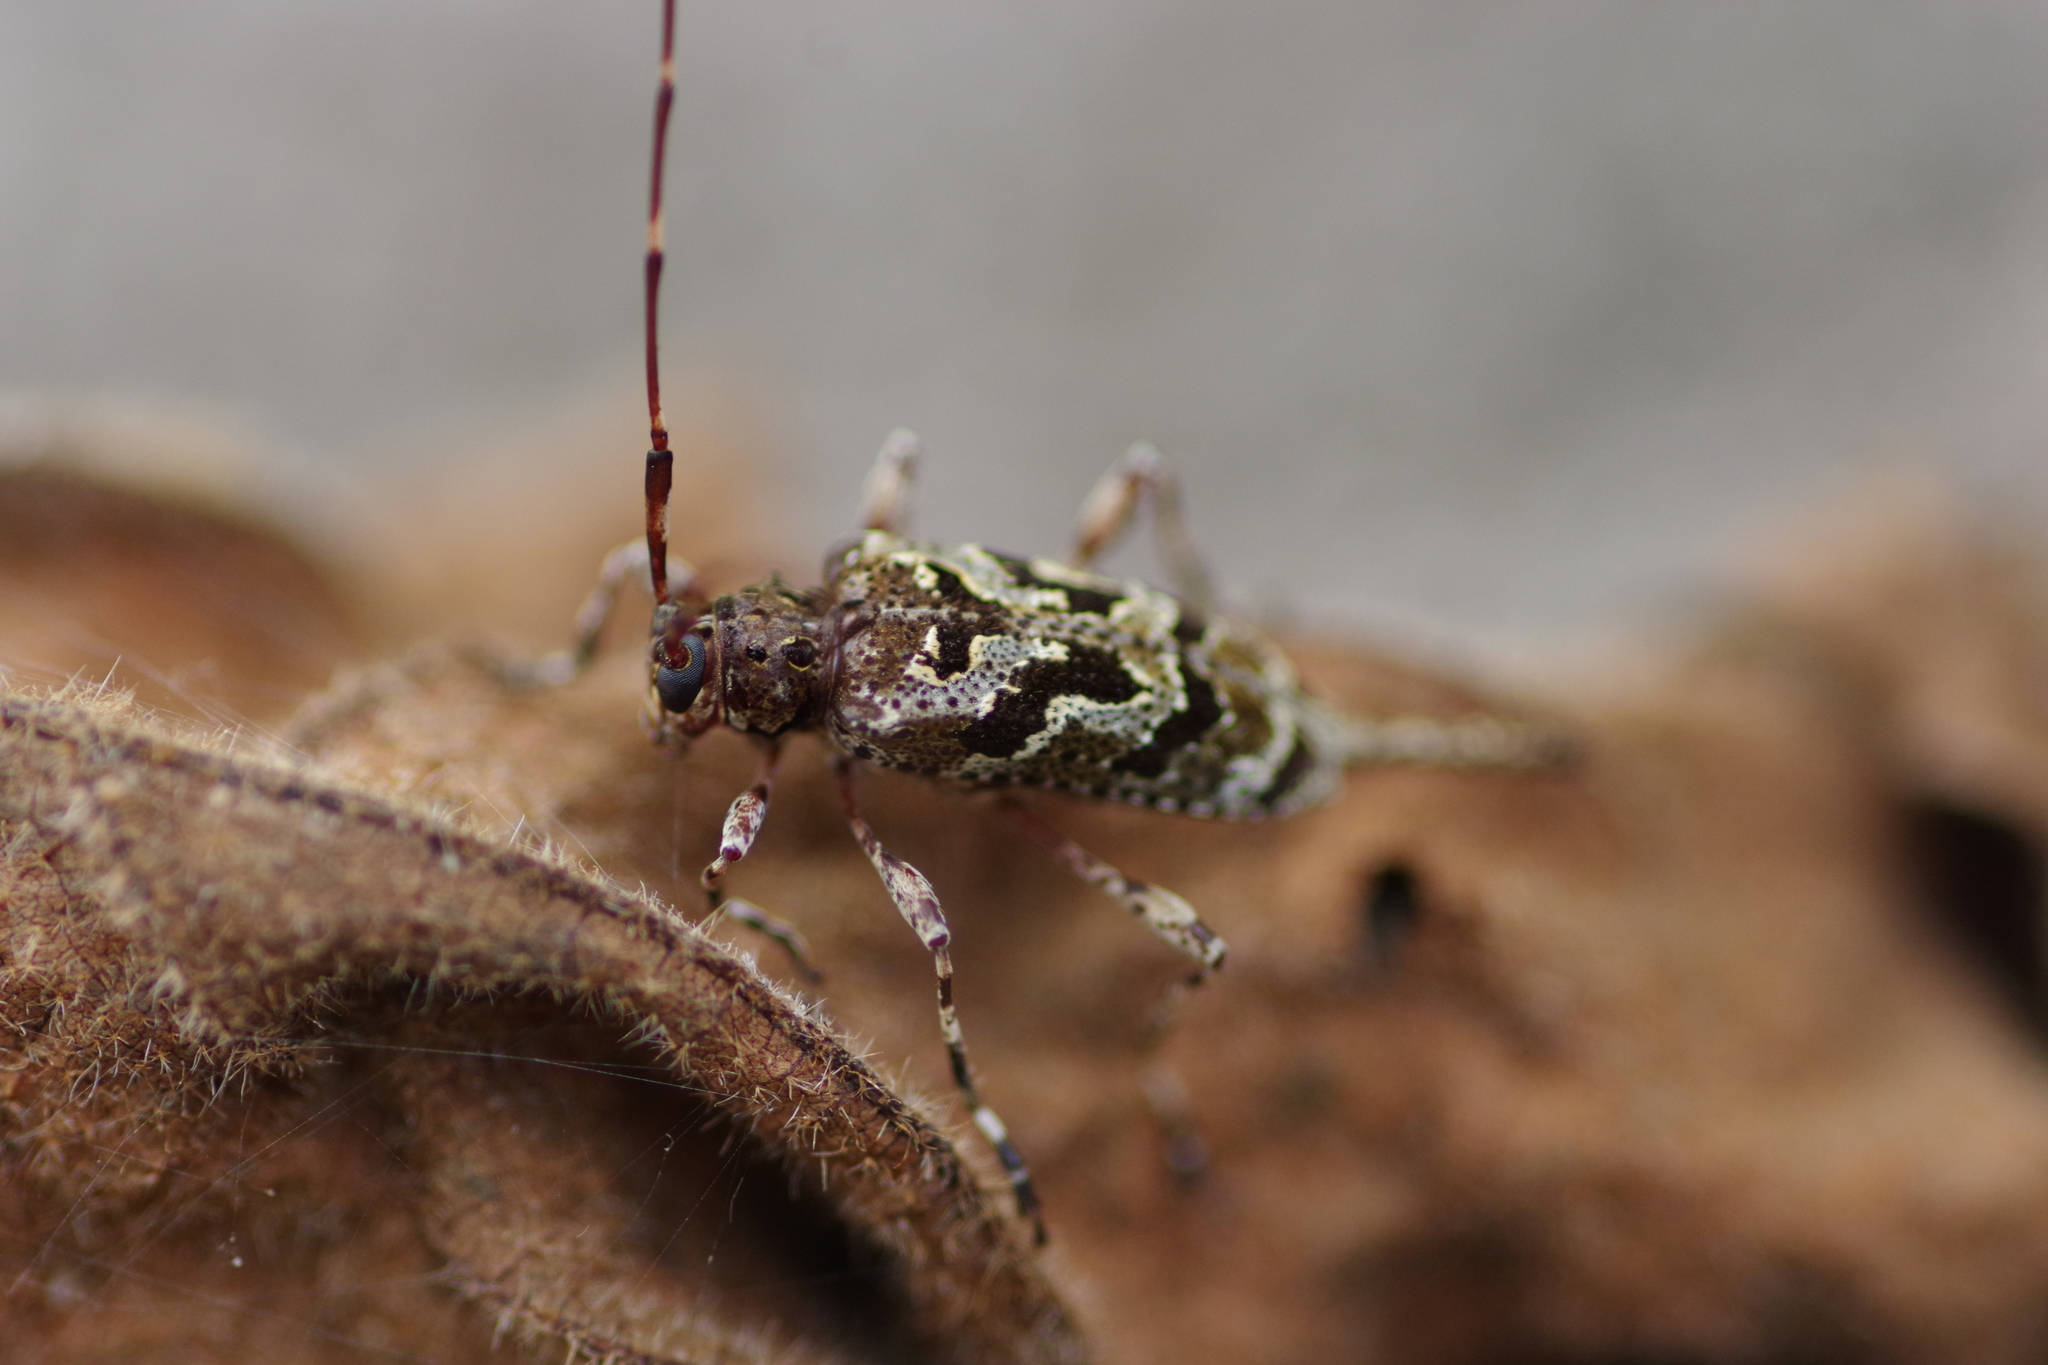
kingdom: Animalia
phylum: Arthropoda
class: Insecta
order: Coleoptera
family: Cerambycidae
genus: Neoeutrypanus
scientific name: Neoeutrypanus decorus
